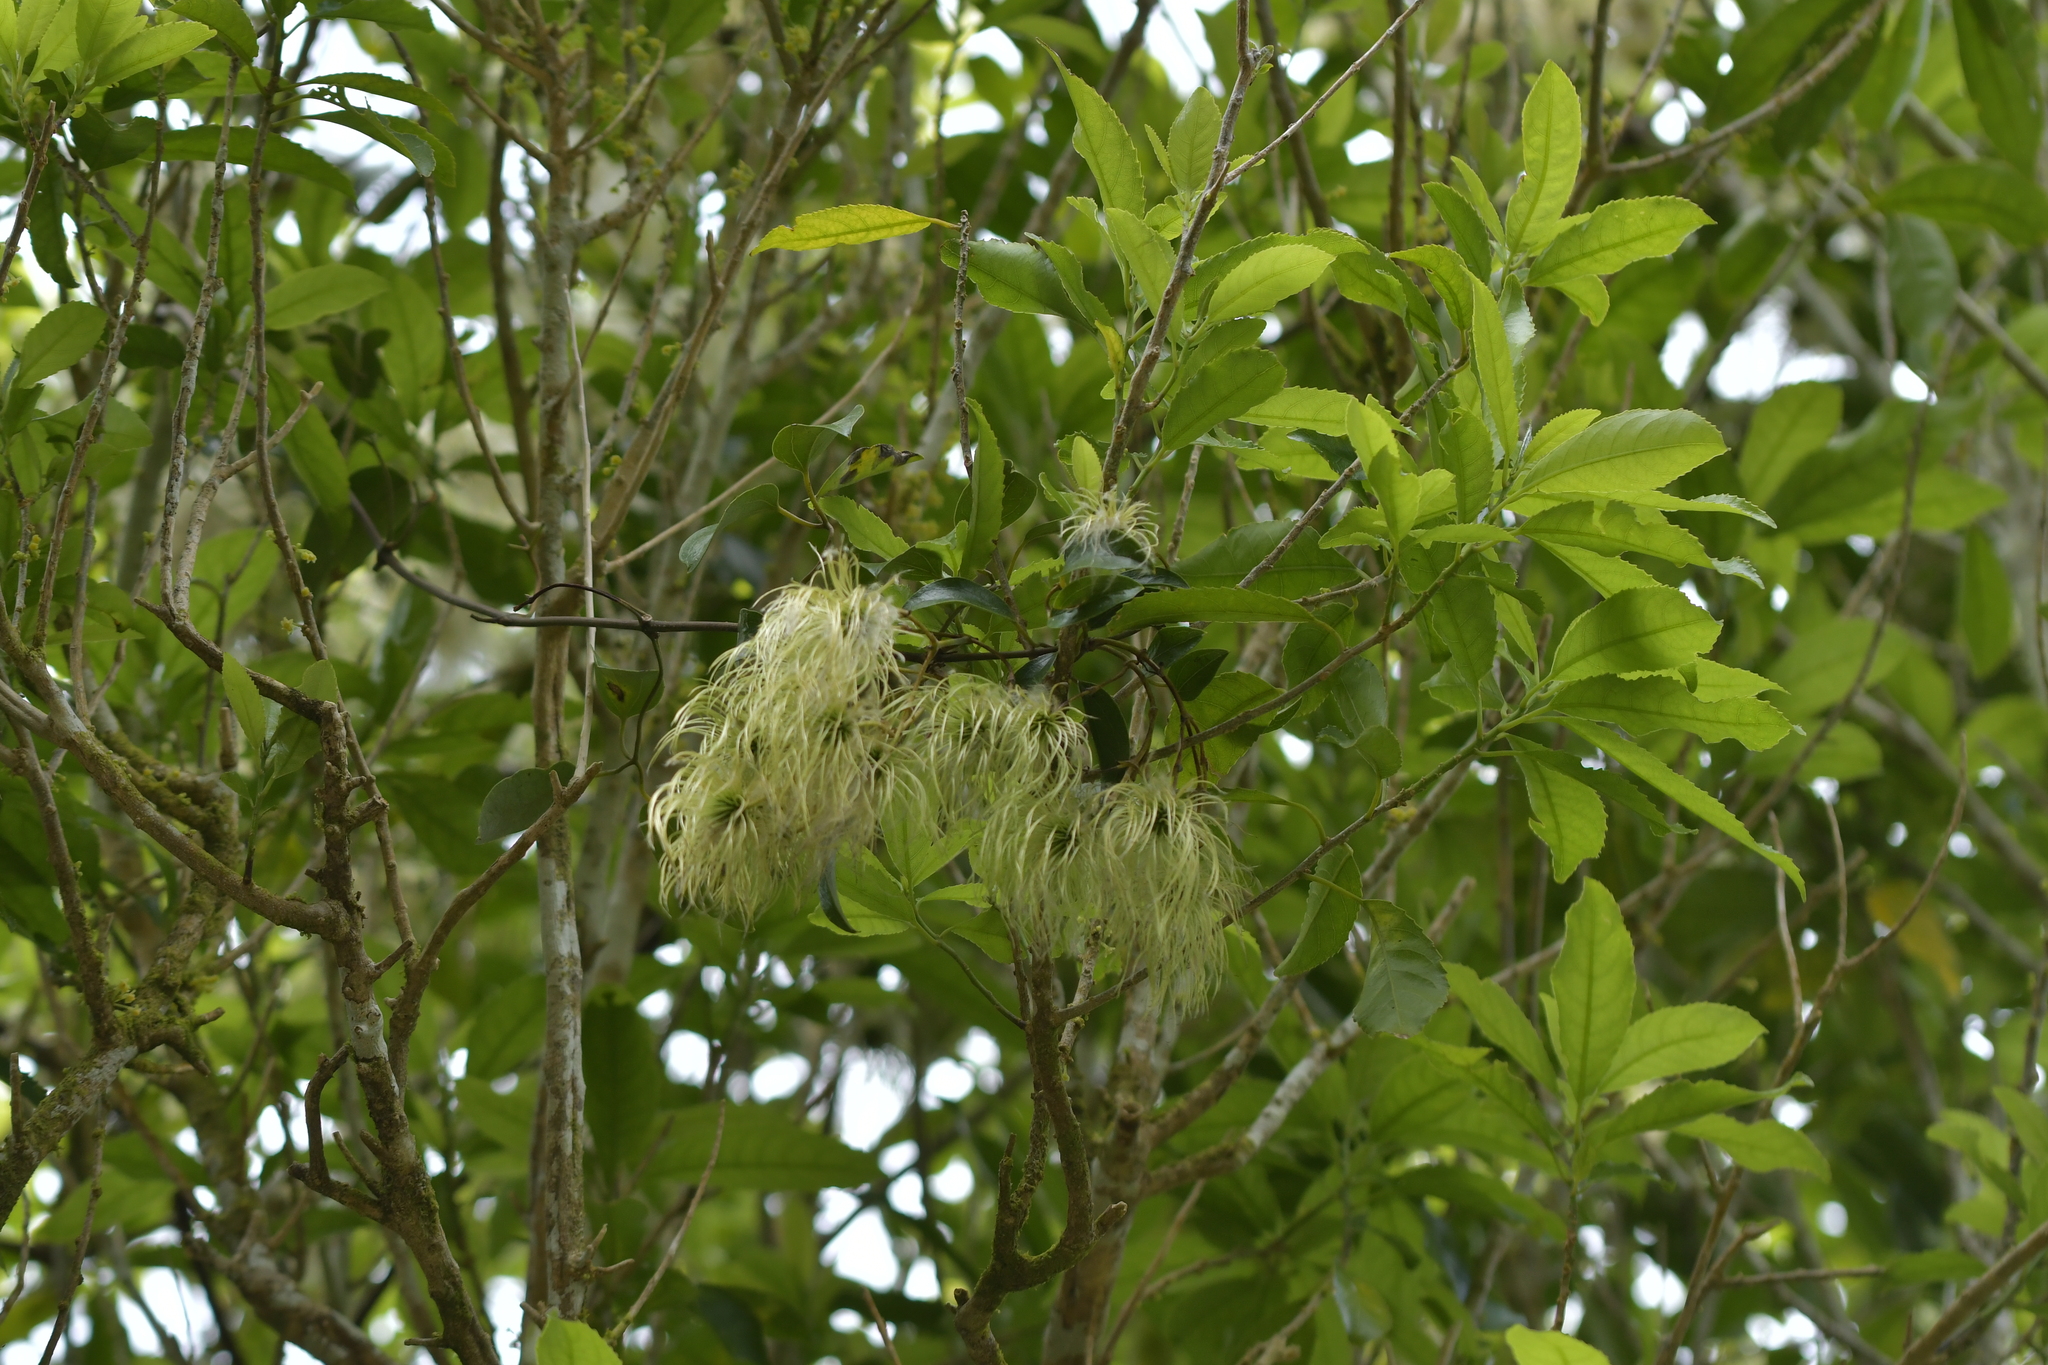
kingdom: Plantae
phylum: Tracheophyta
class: Magnoliopsida
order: Ranunculales
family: Ranunculaceae
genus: Clematis
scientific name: Clematis paniculata
